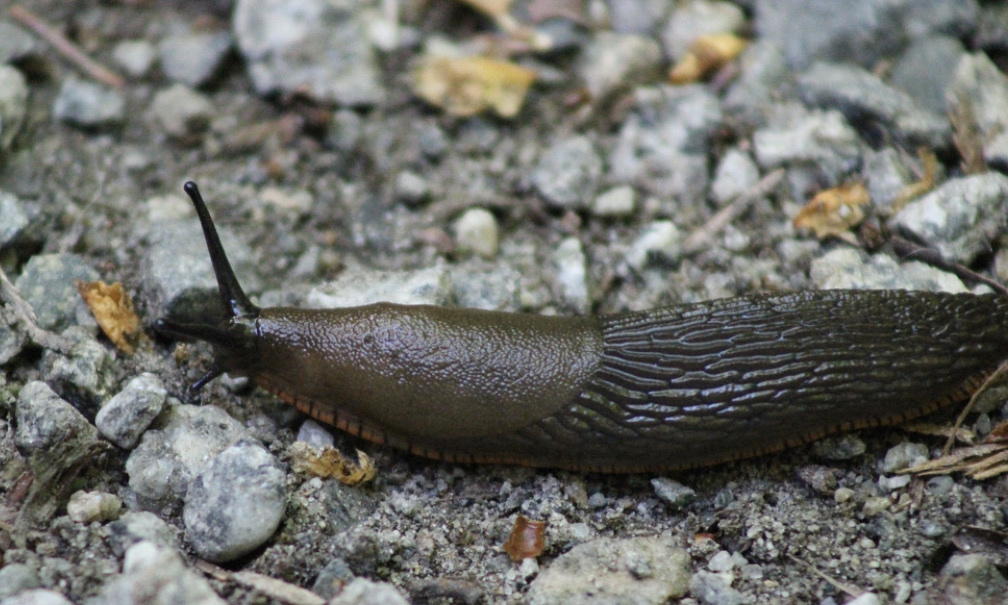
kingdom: Animalia
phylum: Mollusca
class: Gastropoda
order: Stylommatophora
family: Arionidae
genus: Arion
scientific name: Arion rufus
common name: Chocolate arion
